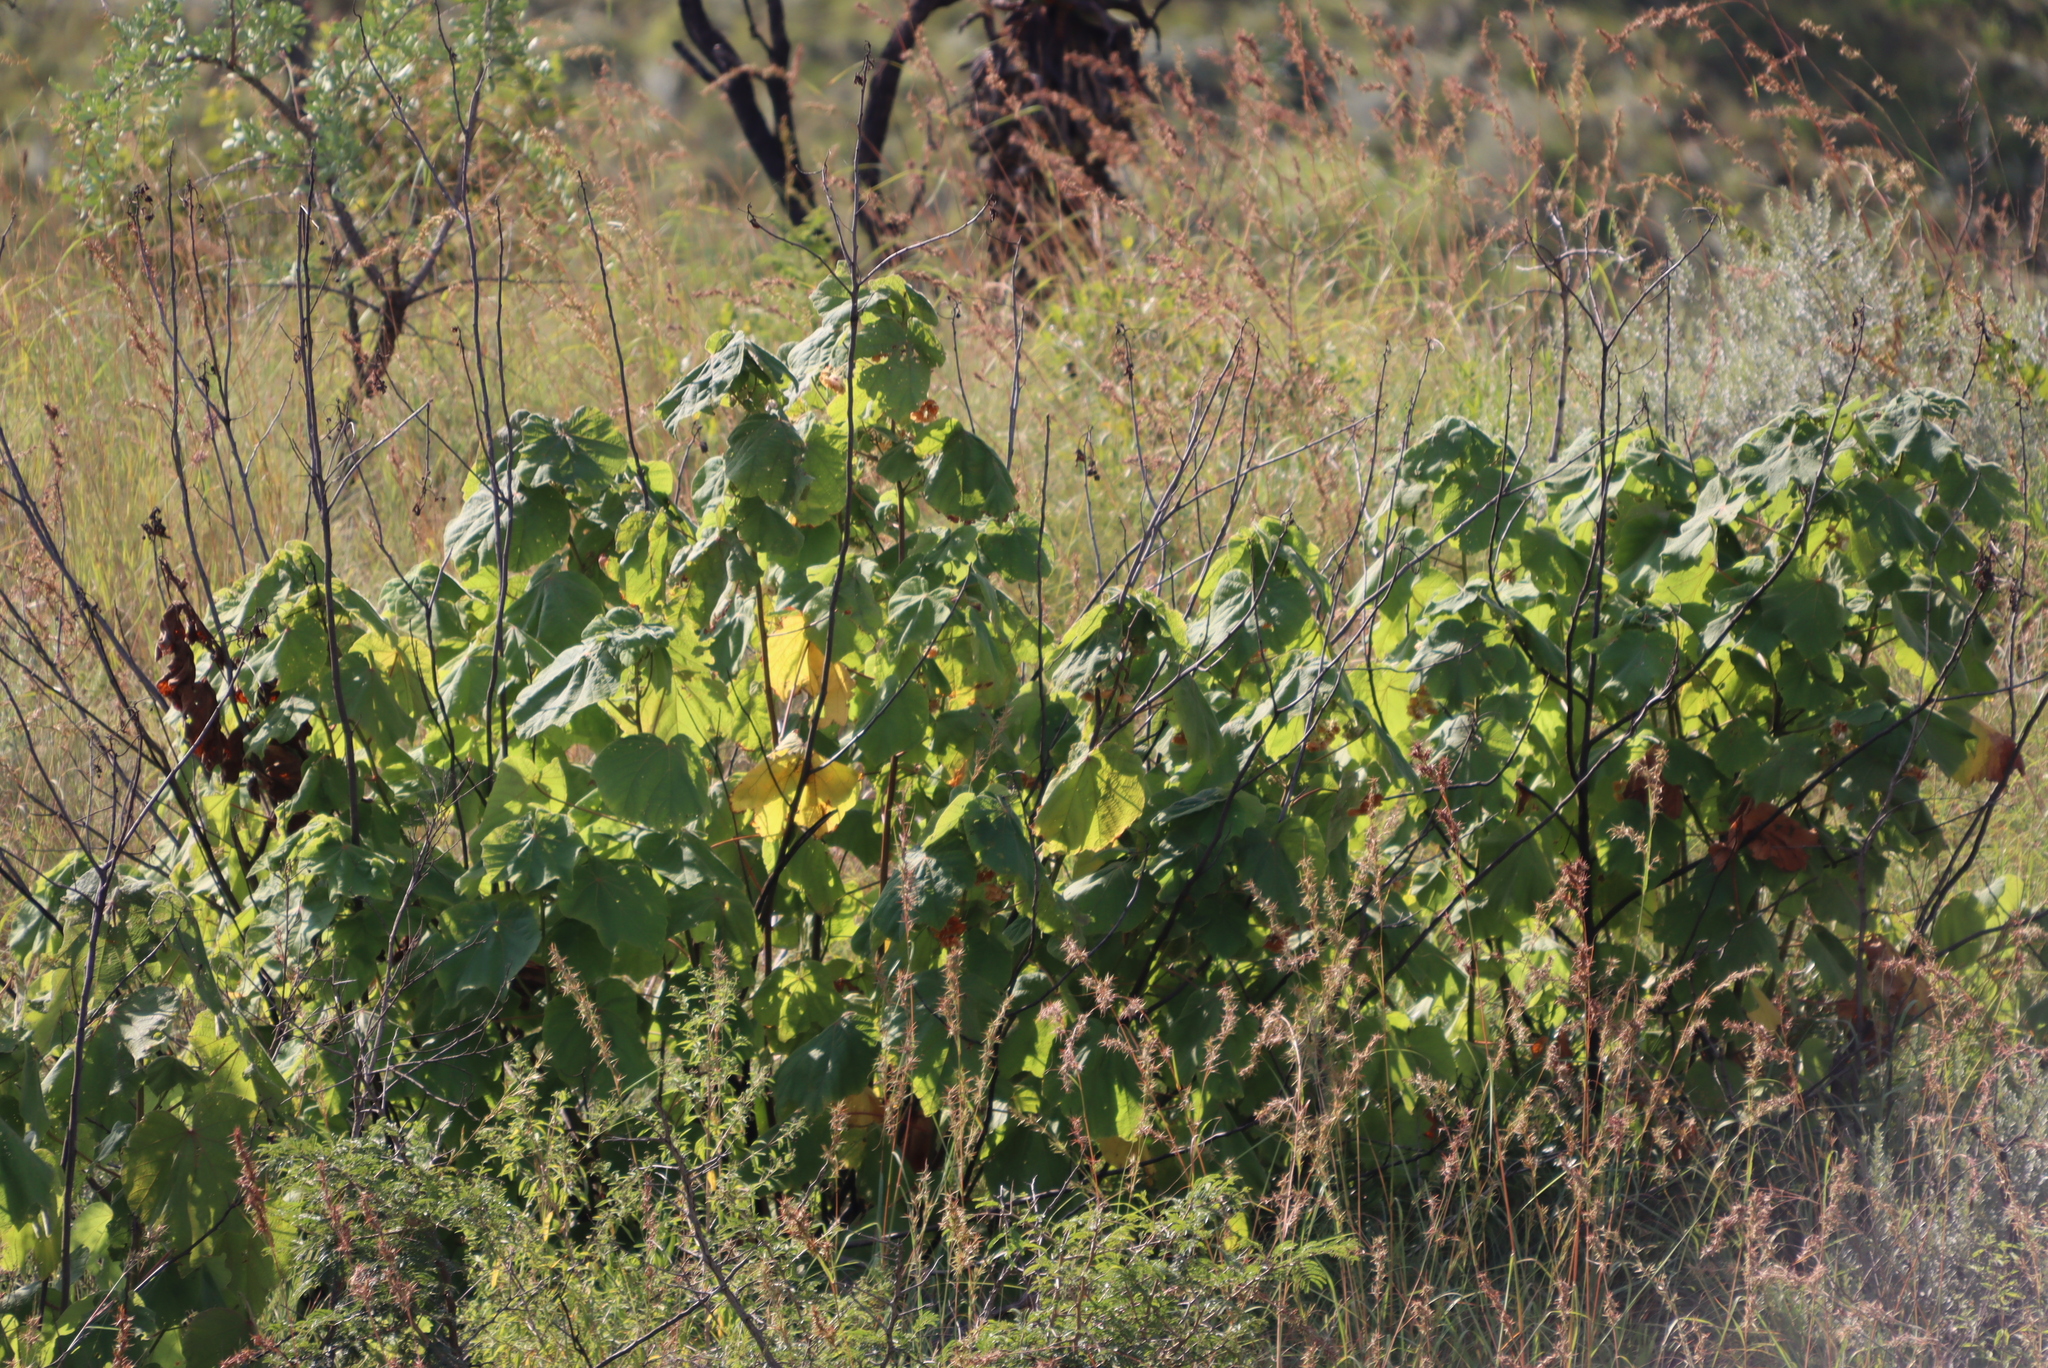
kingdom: Plantae
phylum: Tracheophyta
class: Magnoliopsida
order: Malvales
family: Malvaceae
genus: Dombeya
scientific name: Dombeya burgessiae
